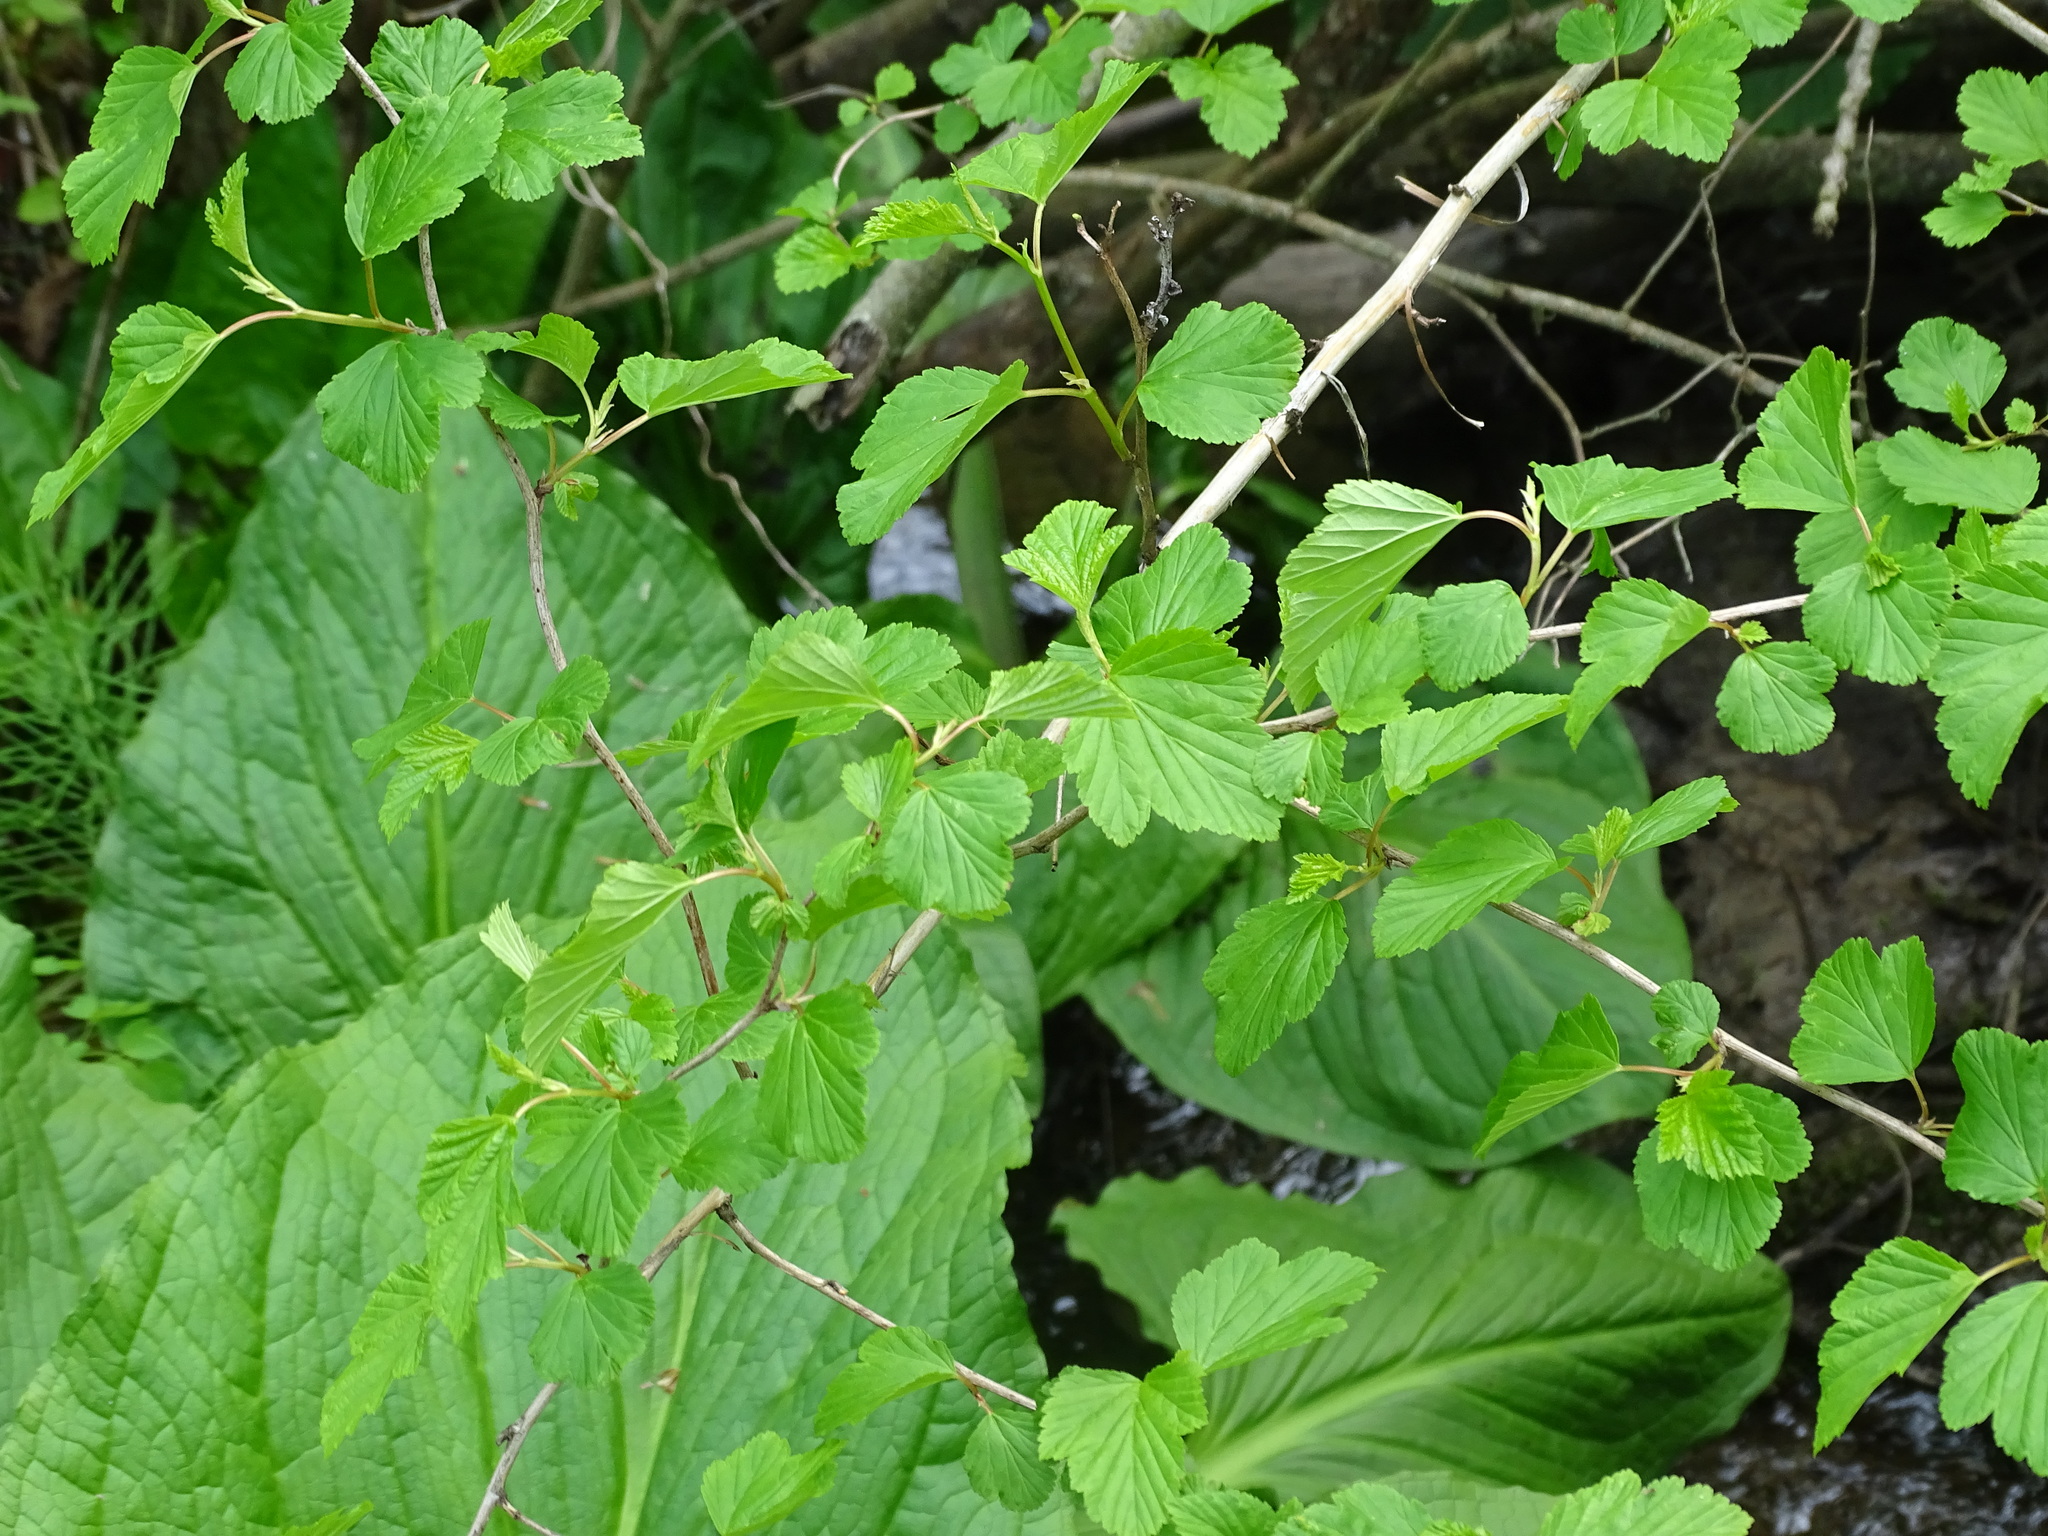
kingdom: Plantae
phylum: Tracheophyta
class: Magnoliopsida
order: Rosales
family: Rosaceae
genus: Physocarpus
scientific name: Physocarpus opulifolius
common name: Ninebark
